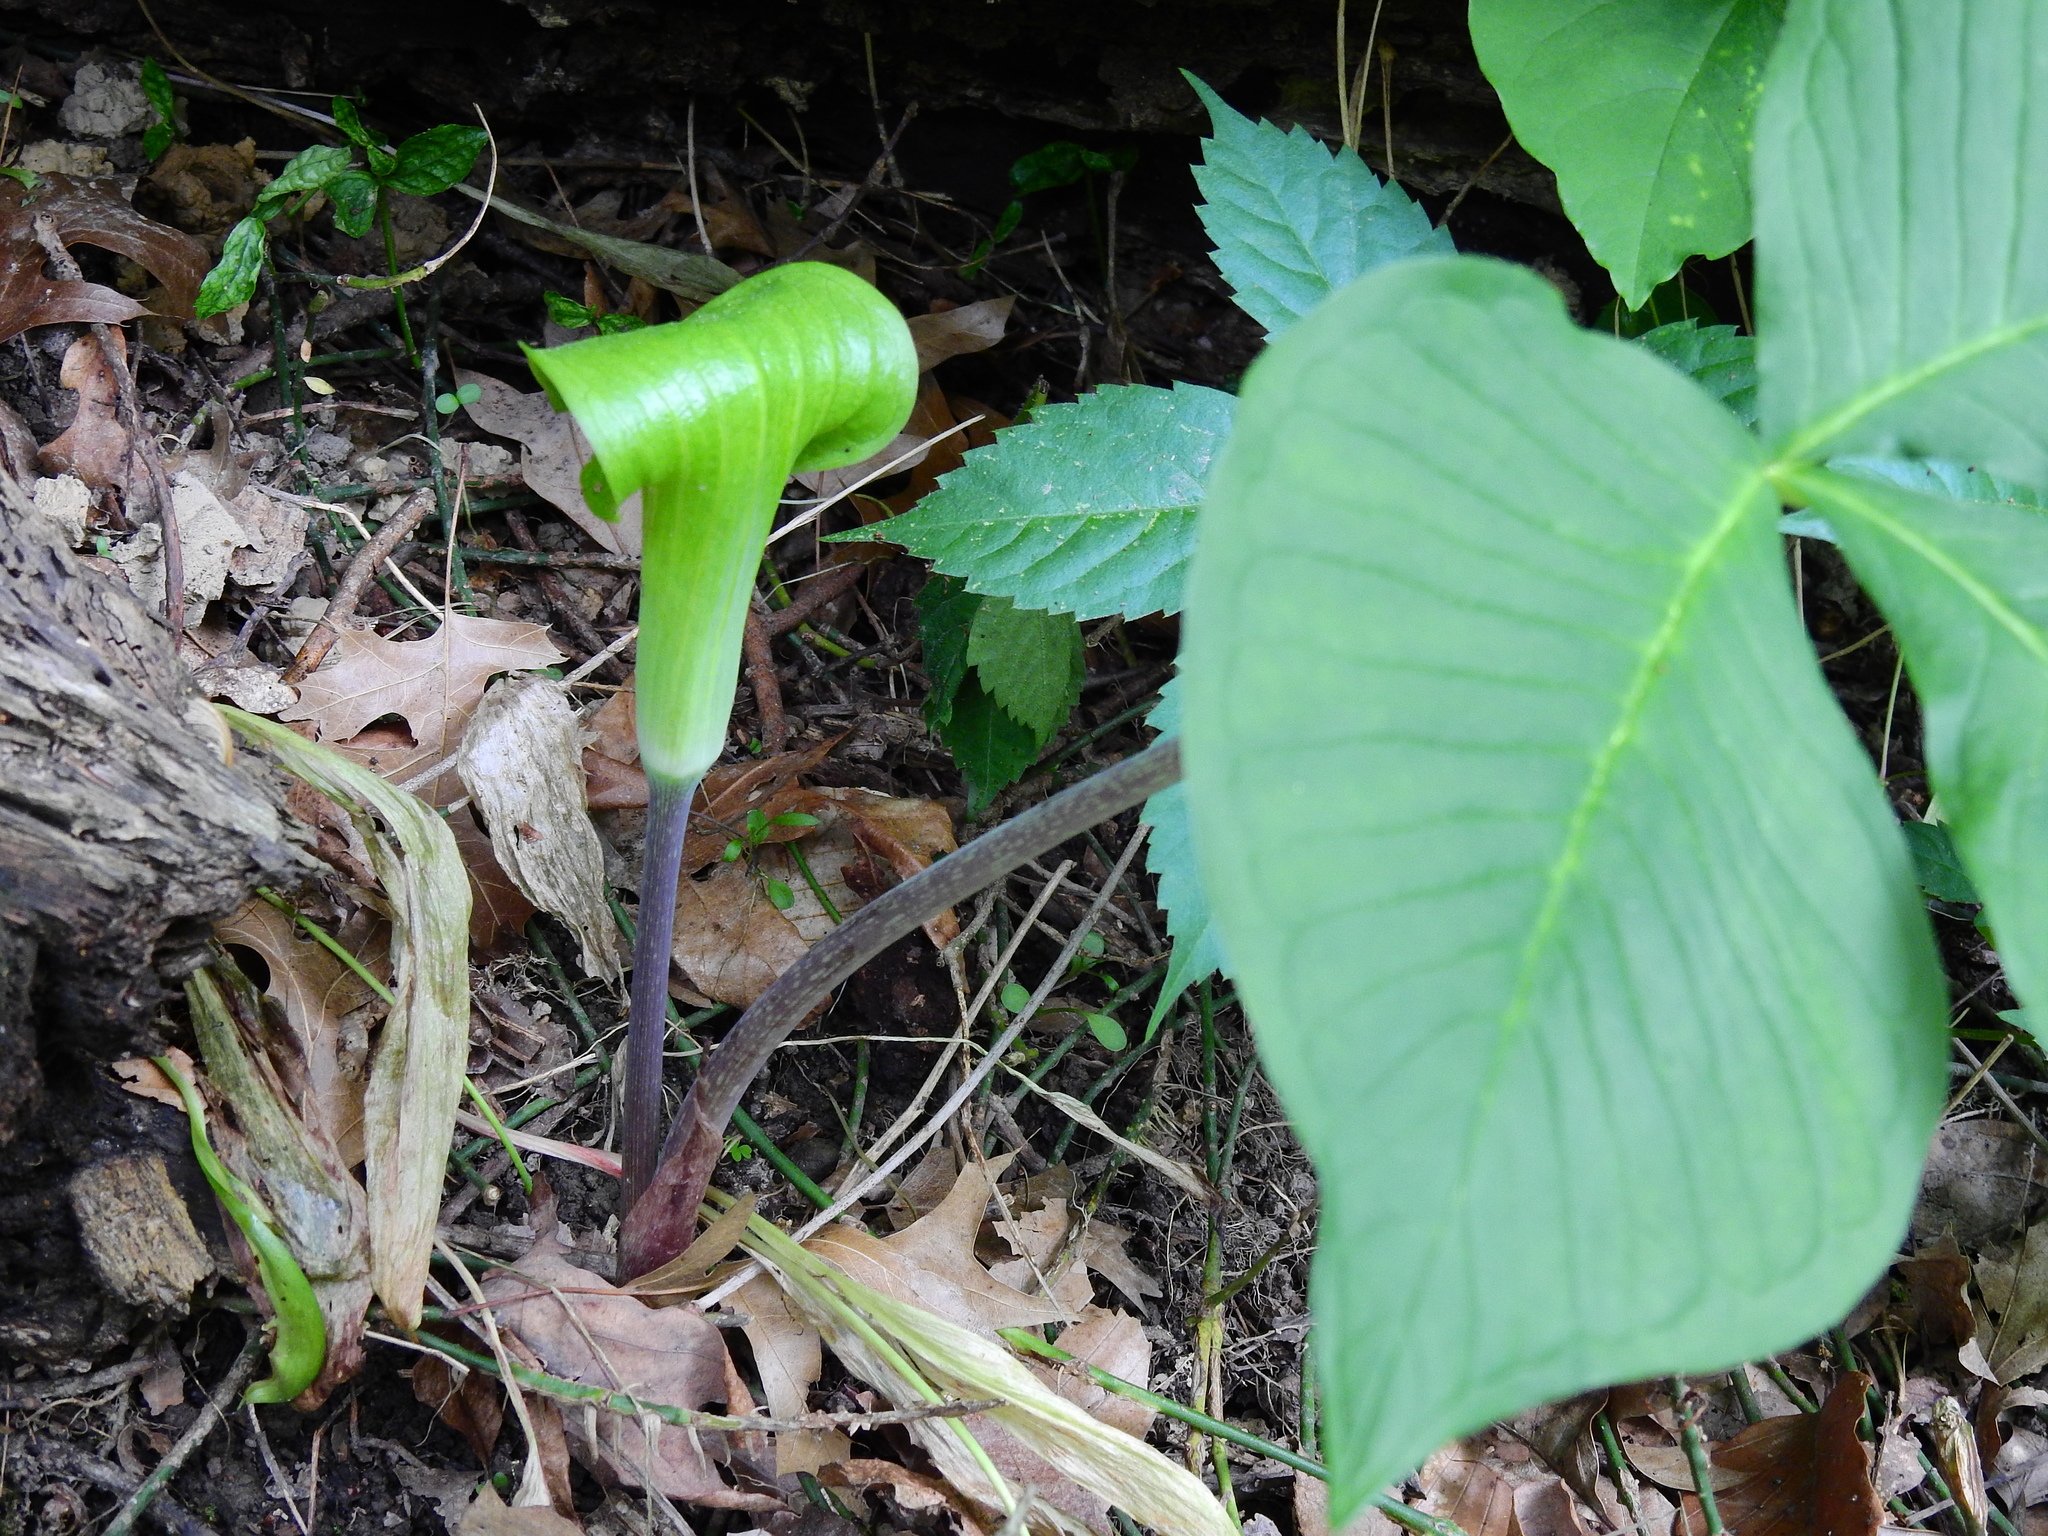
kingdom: Plantae
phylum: Tracheophyta
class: Liliopsida
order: Alismatales
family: Araceae
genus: Arisaema
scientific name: Arisaema triphyllum
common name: Jack-in-the-pulpit
